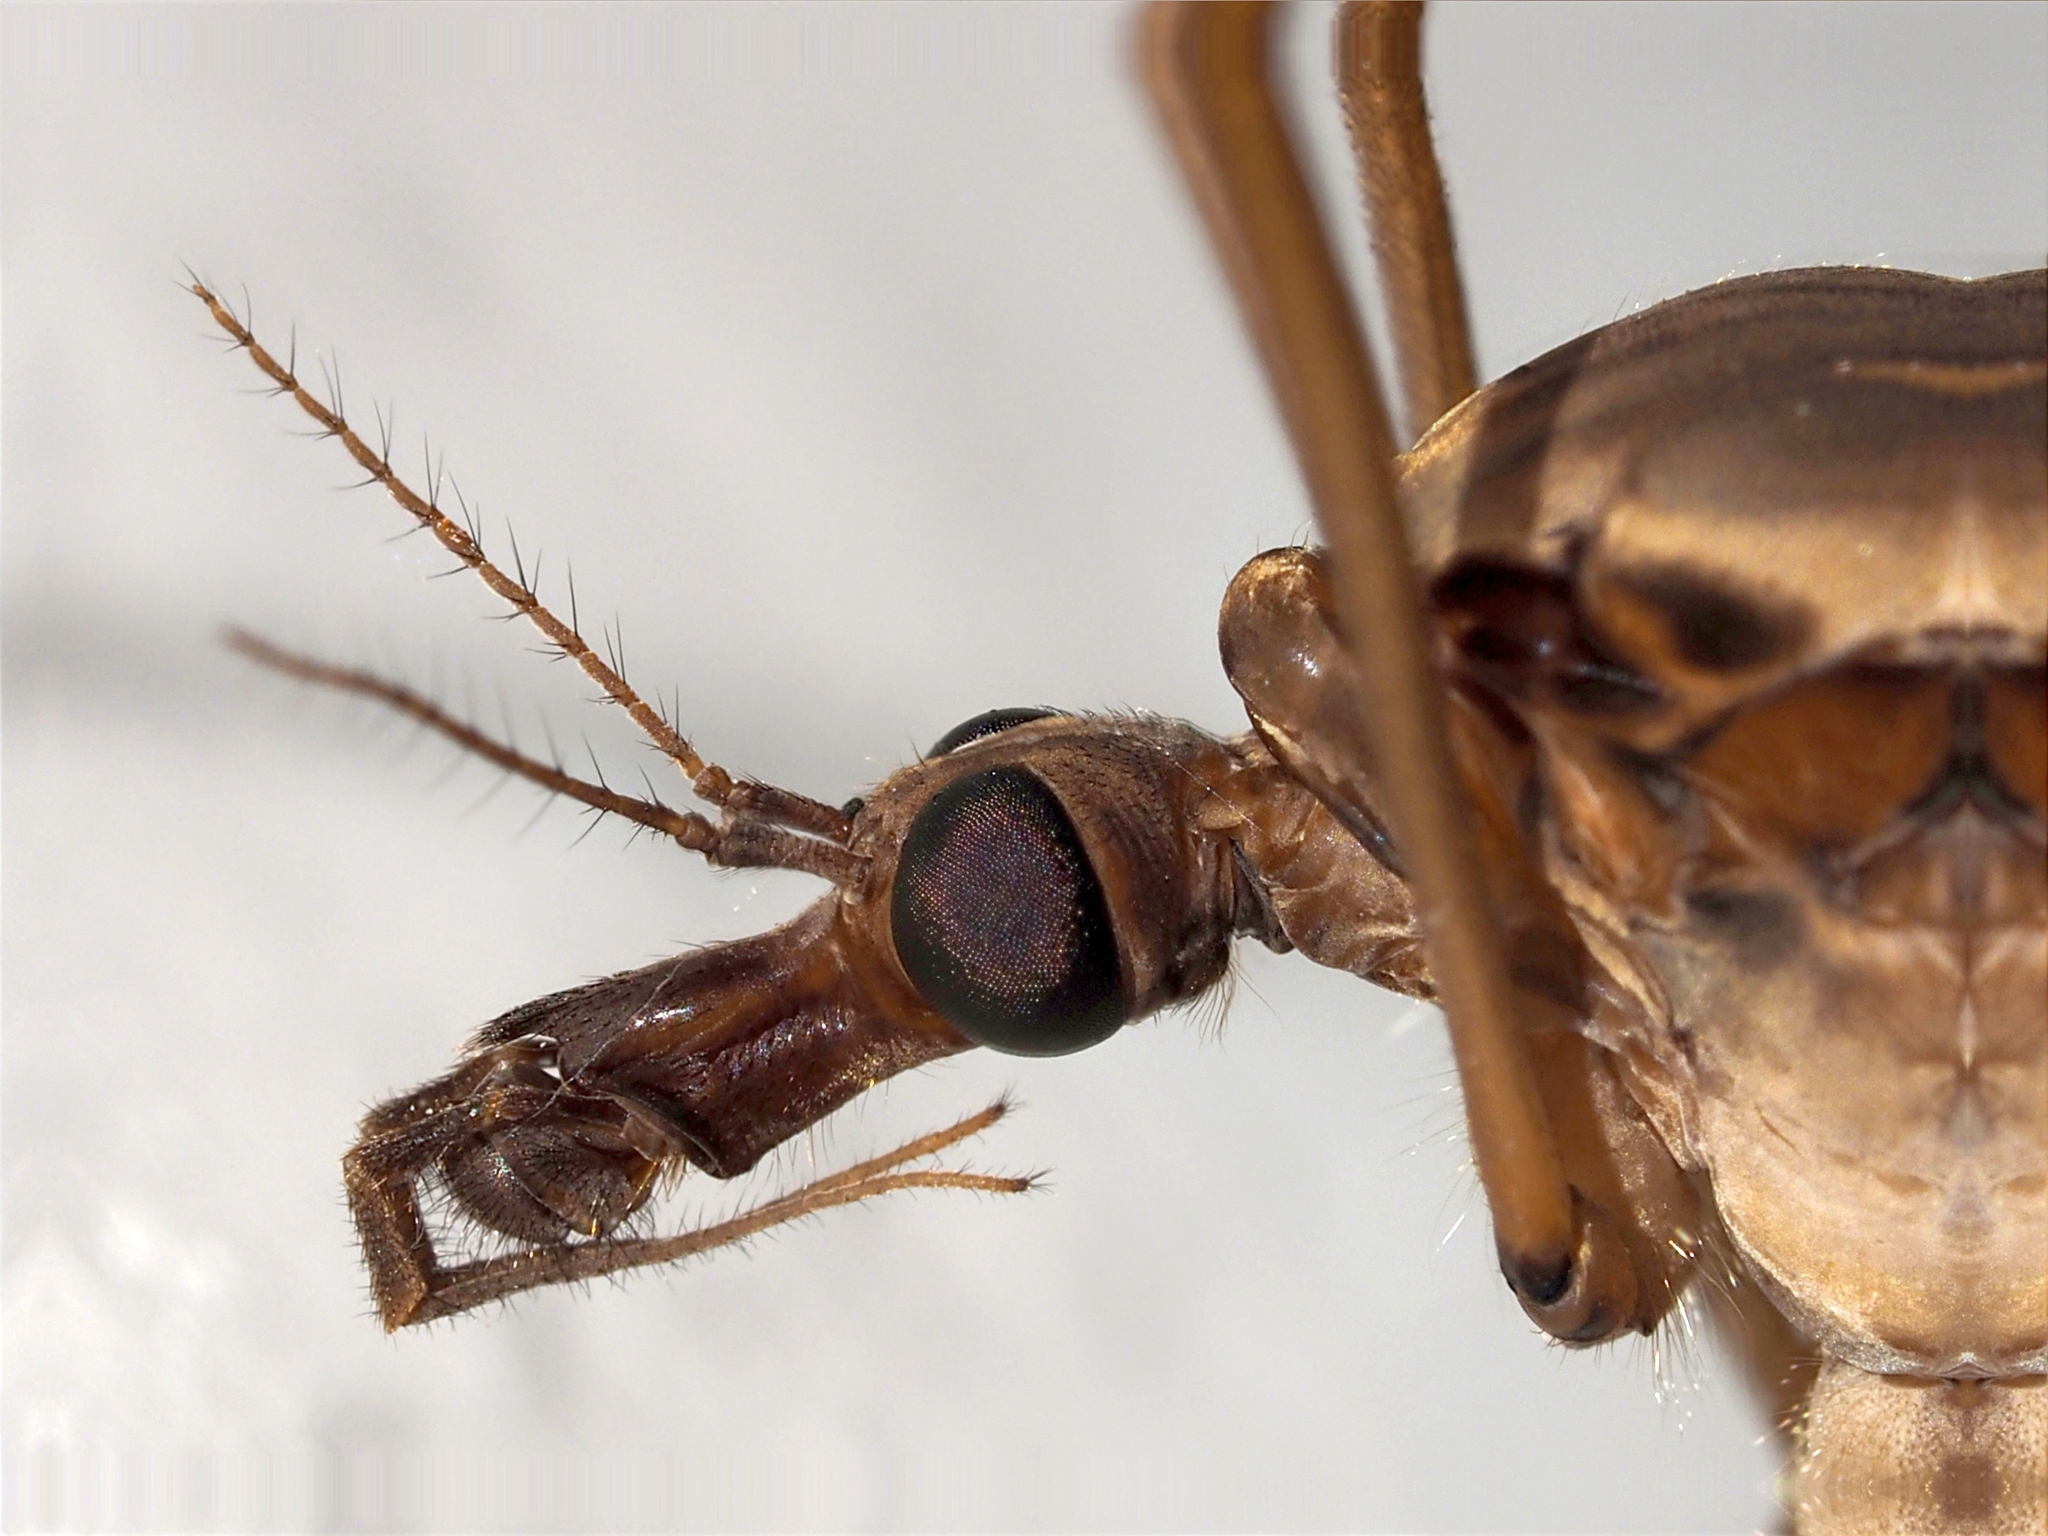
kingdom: Animalia
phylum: Arthropoda
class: Insecta
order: Diptera
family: Tipulidae
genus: Tipula
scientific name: Tipula maxima
